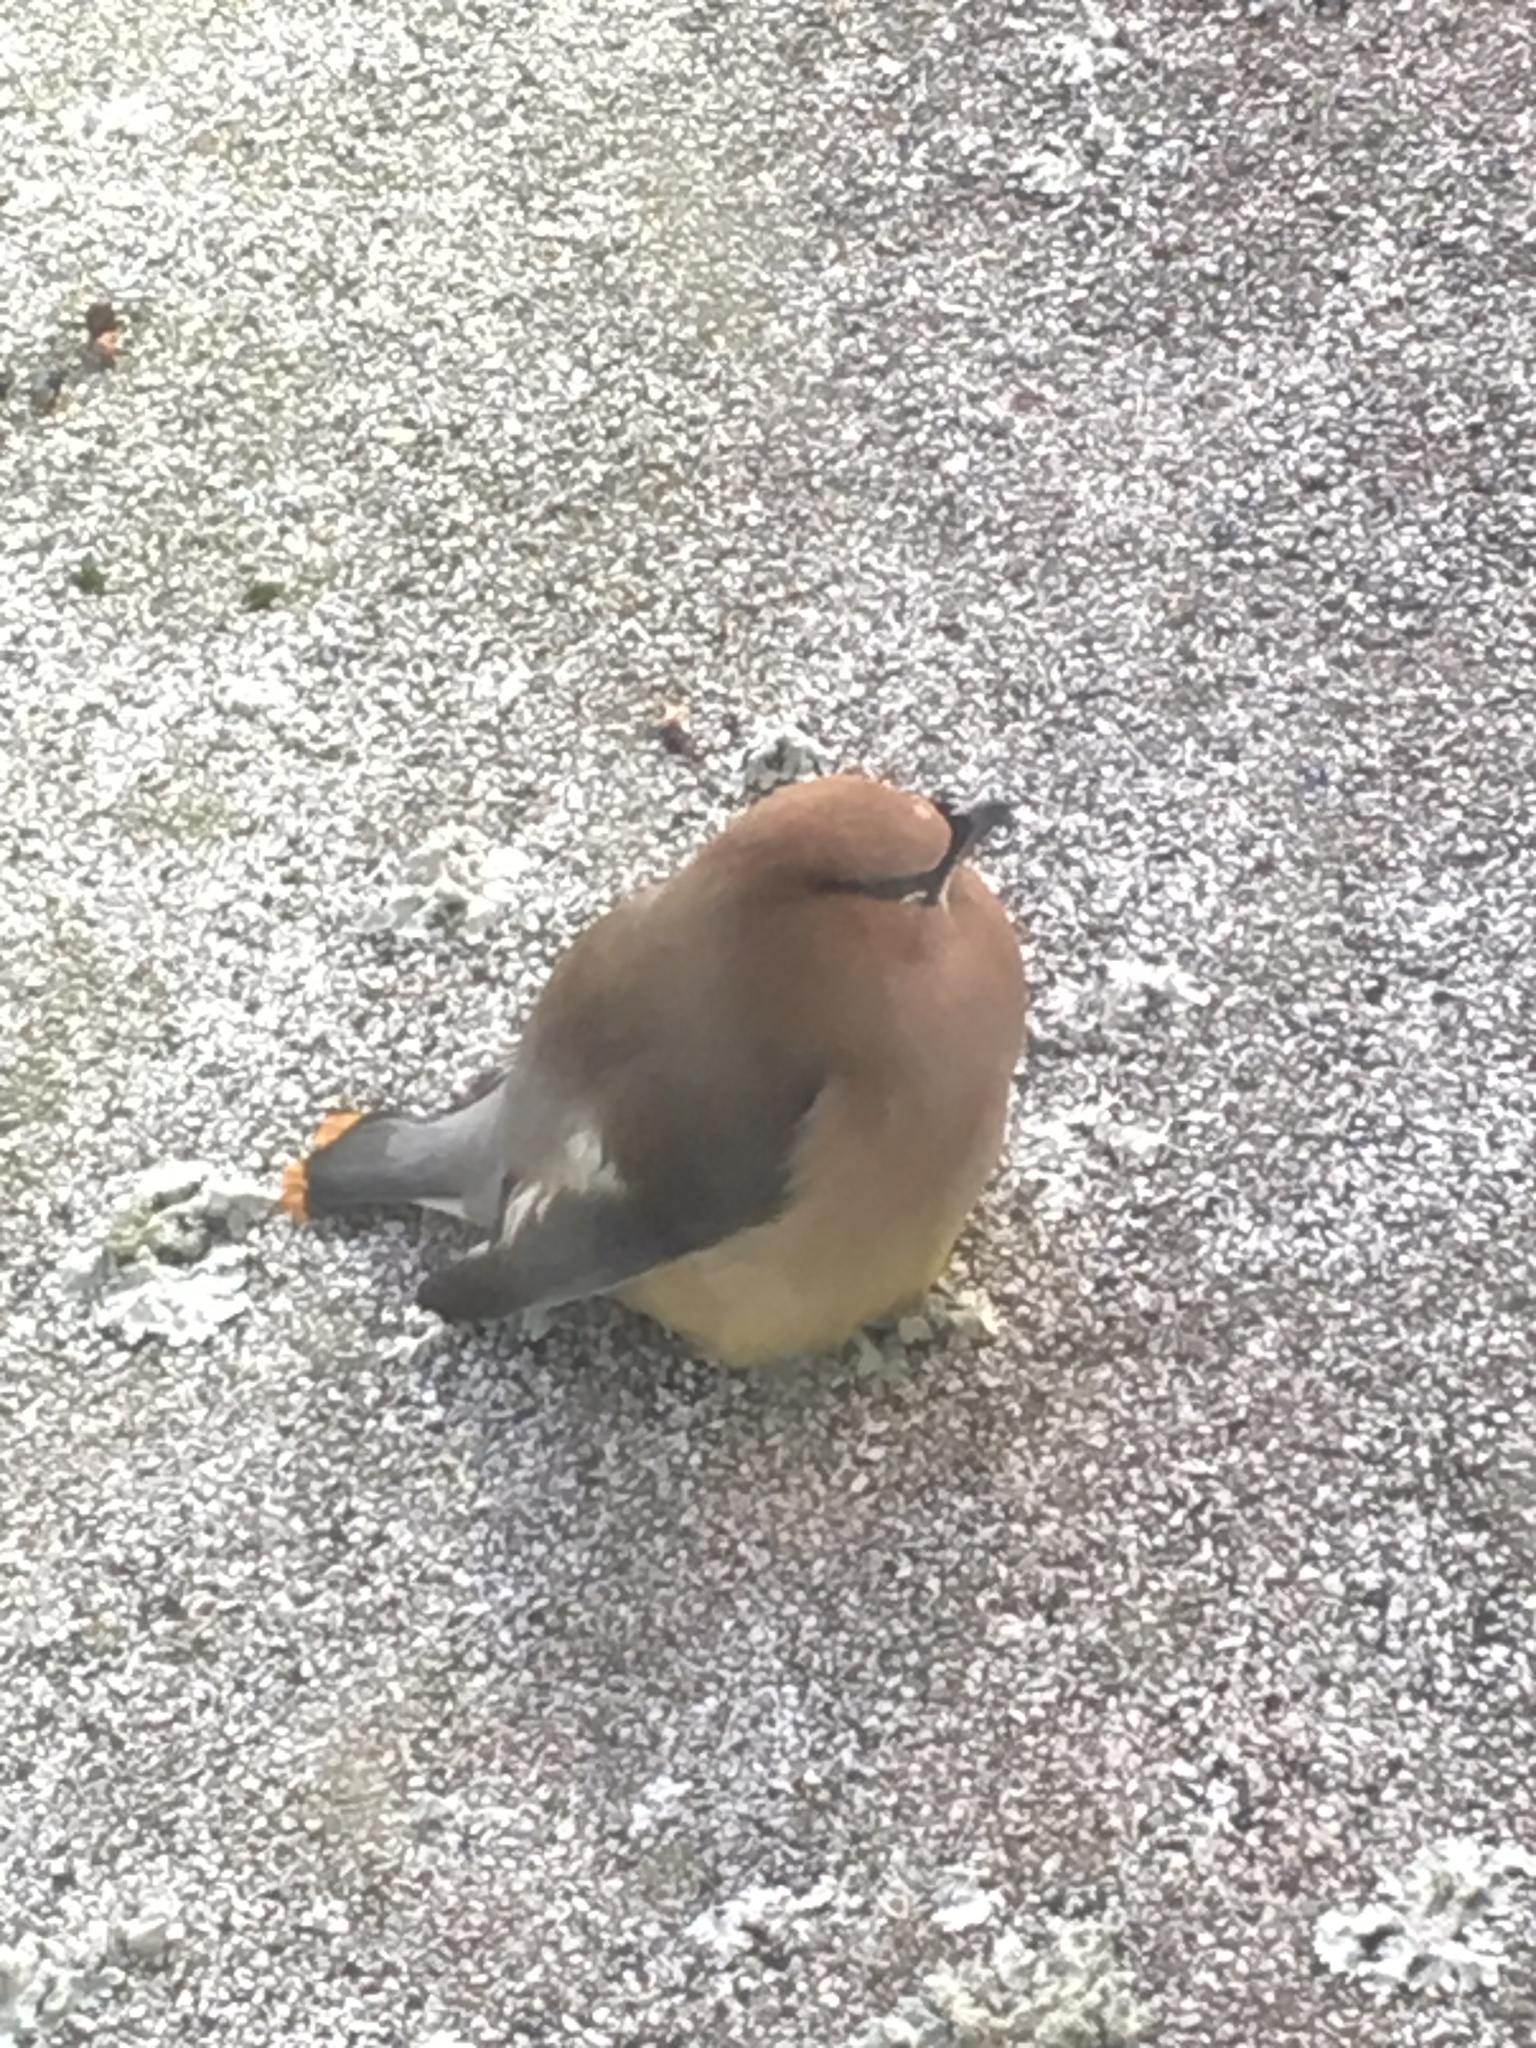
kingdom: Animalia
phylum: Chordata
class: Aves
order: Passeriformes
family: Bombycillidae
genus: Bombycilla
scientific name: Bombycilla cedrorum
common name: Cedar waxwing
